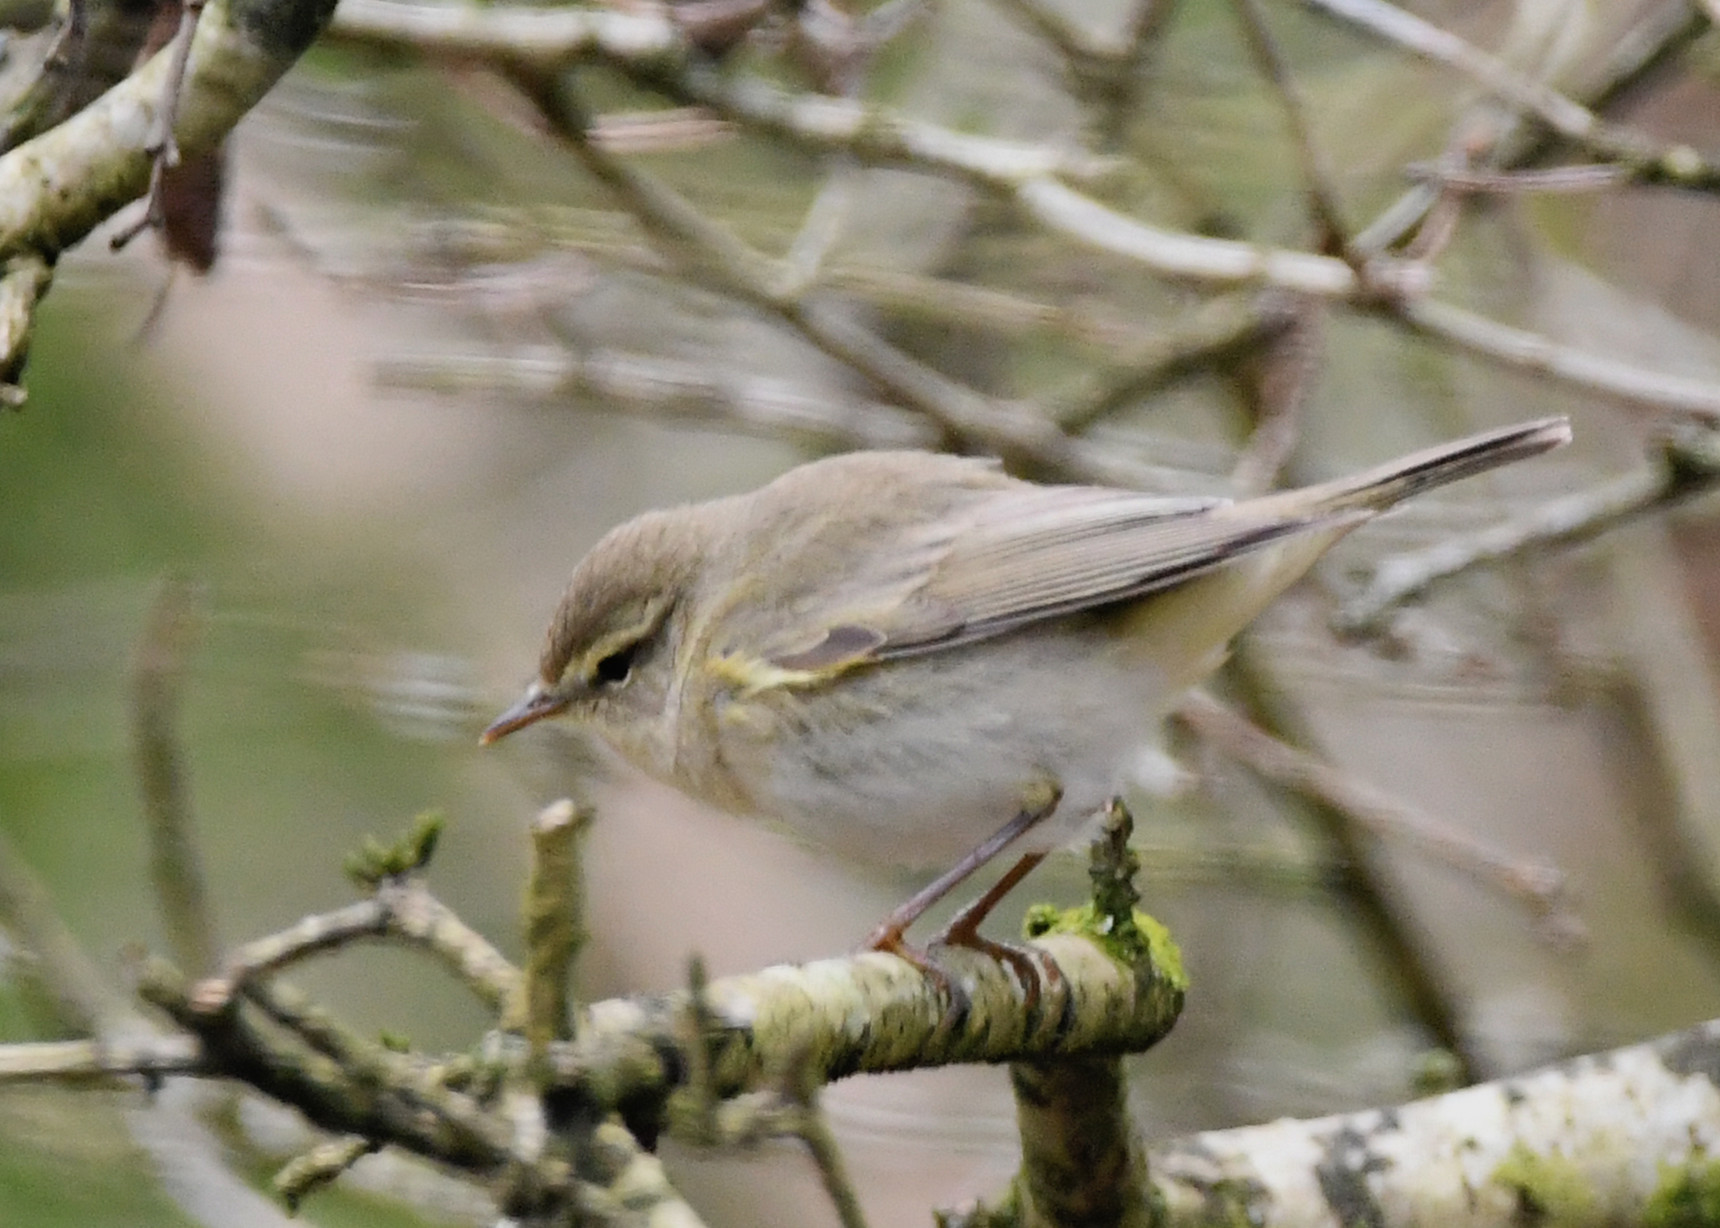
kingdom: Animalia
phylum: Chordata
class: Aves
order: Passeriformes
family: Phylloscopidae
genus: Phylloscopus
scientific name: Phylloscopus collybita
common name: Common chiffchaff
